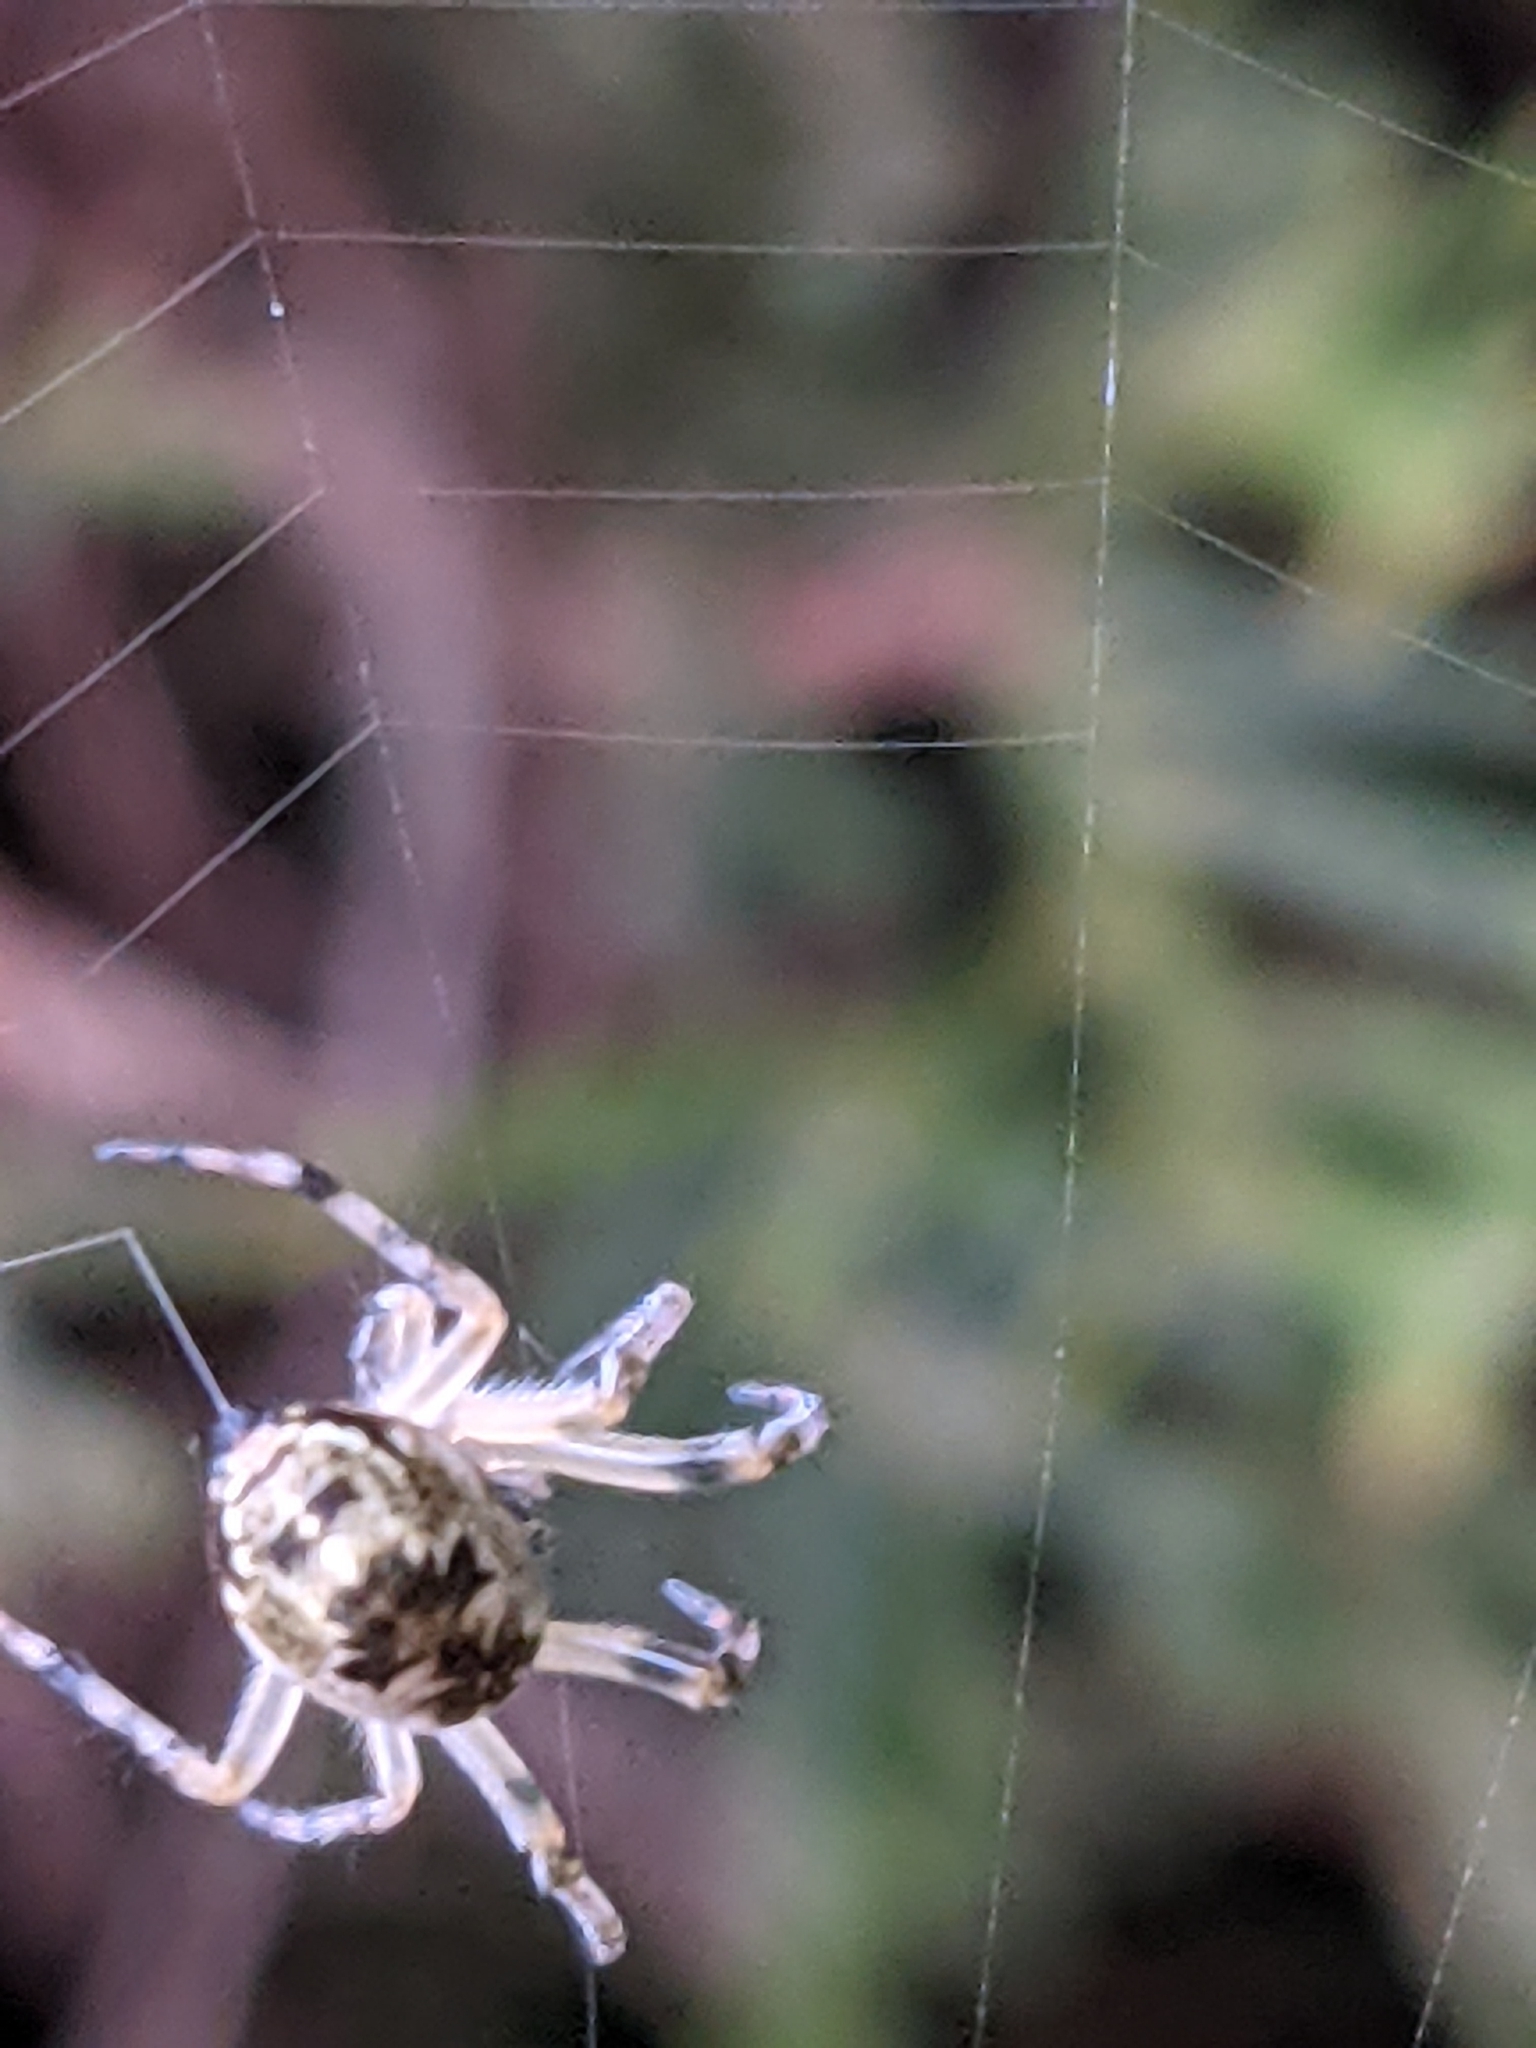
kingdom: Animalia
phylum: Arthropoda
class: Arachnida
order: Araneae
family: Araneidae
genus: Cyclosa
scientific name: Cyclosa conica
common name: Conical trashline orbweaver
